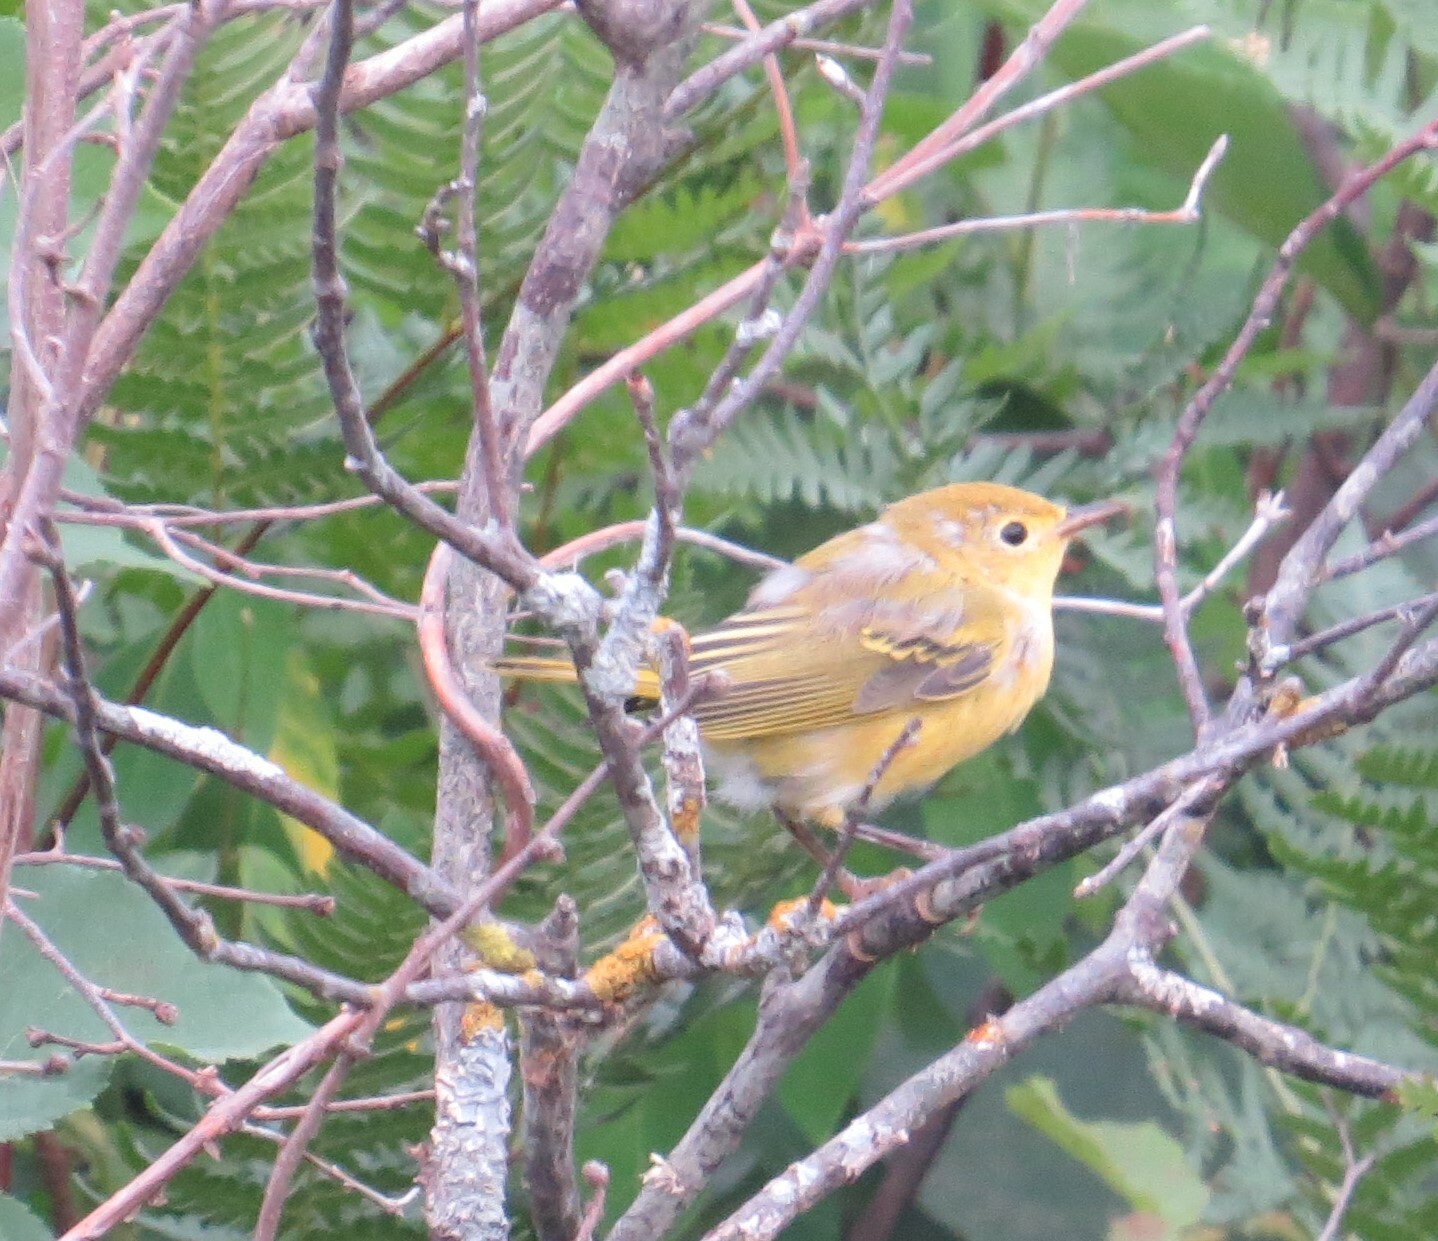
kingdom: Animalia
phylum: Chordata
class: Aves
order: Passeriformes
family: Parulidae
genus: Setophaga
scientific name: Setophaga petechia
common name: Yellow warbler
